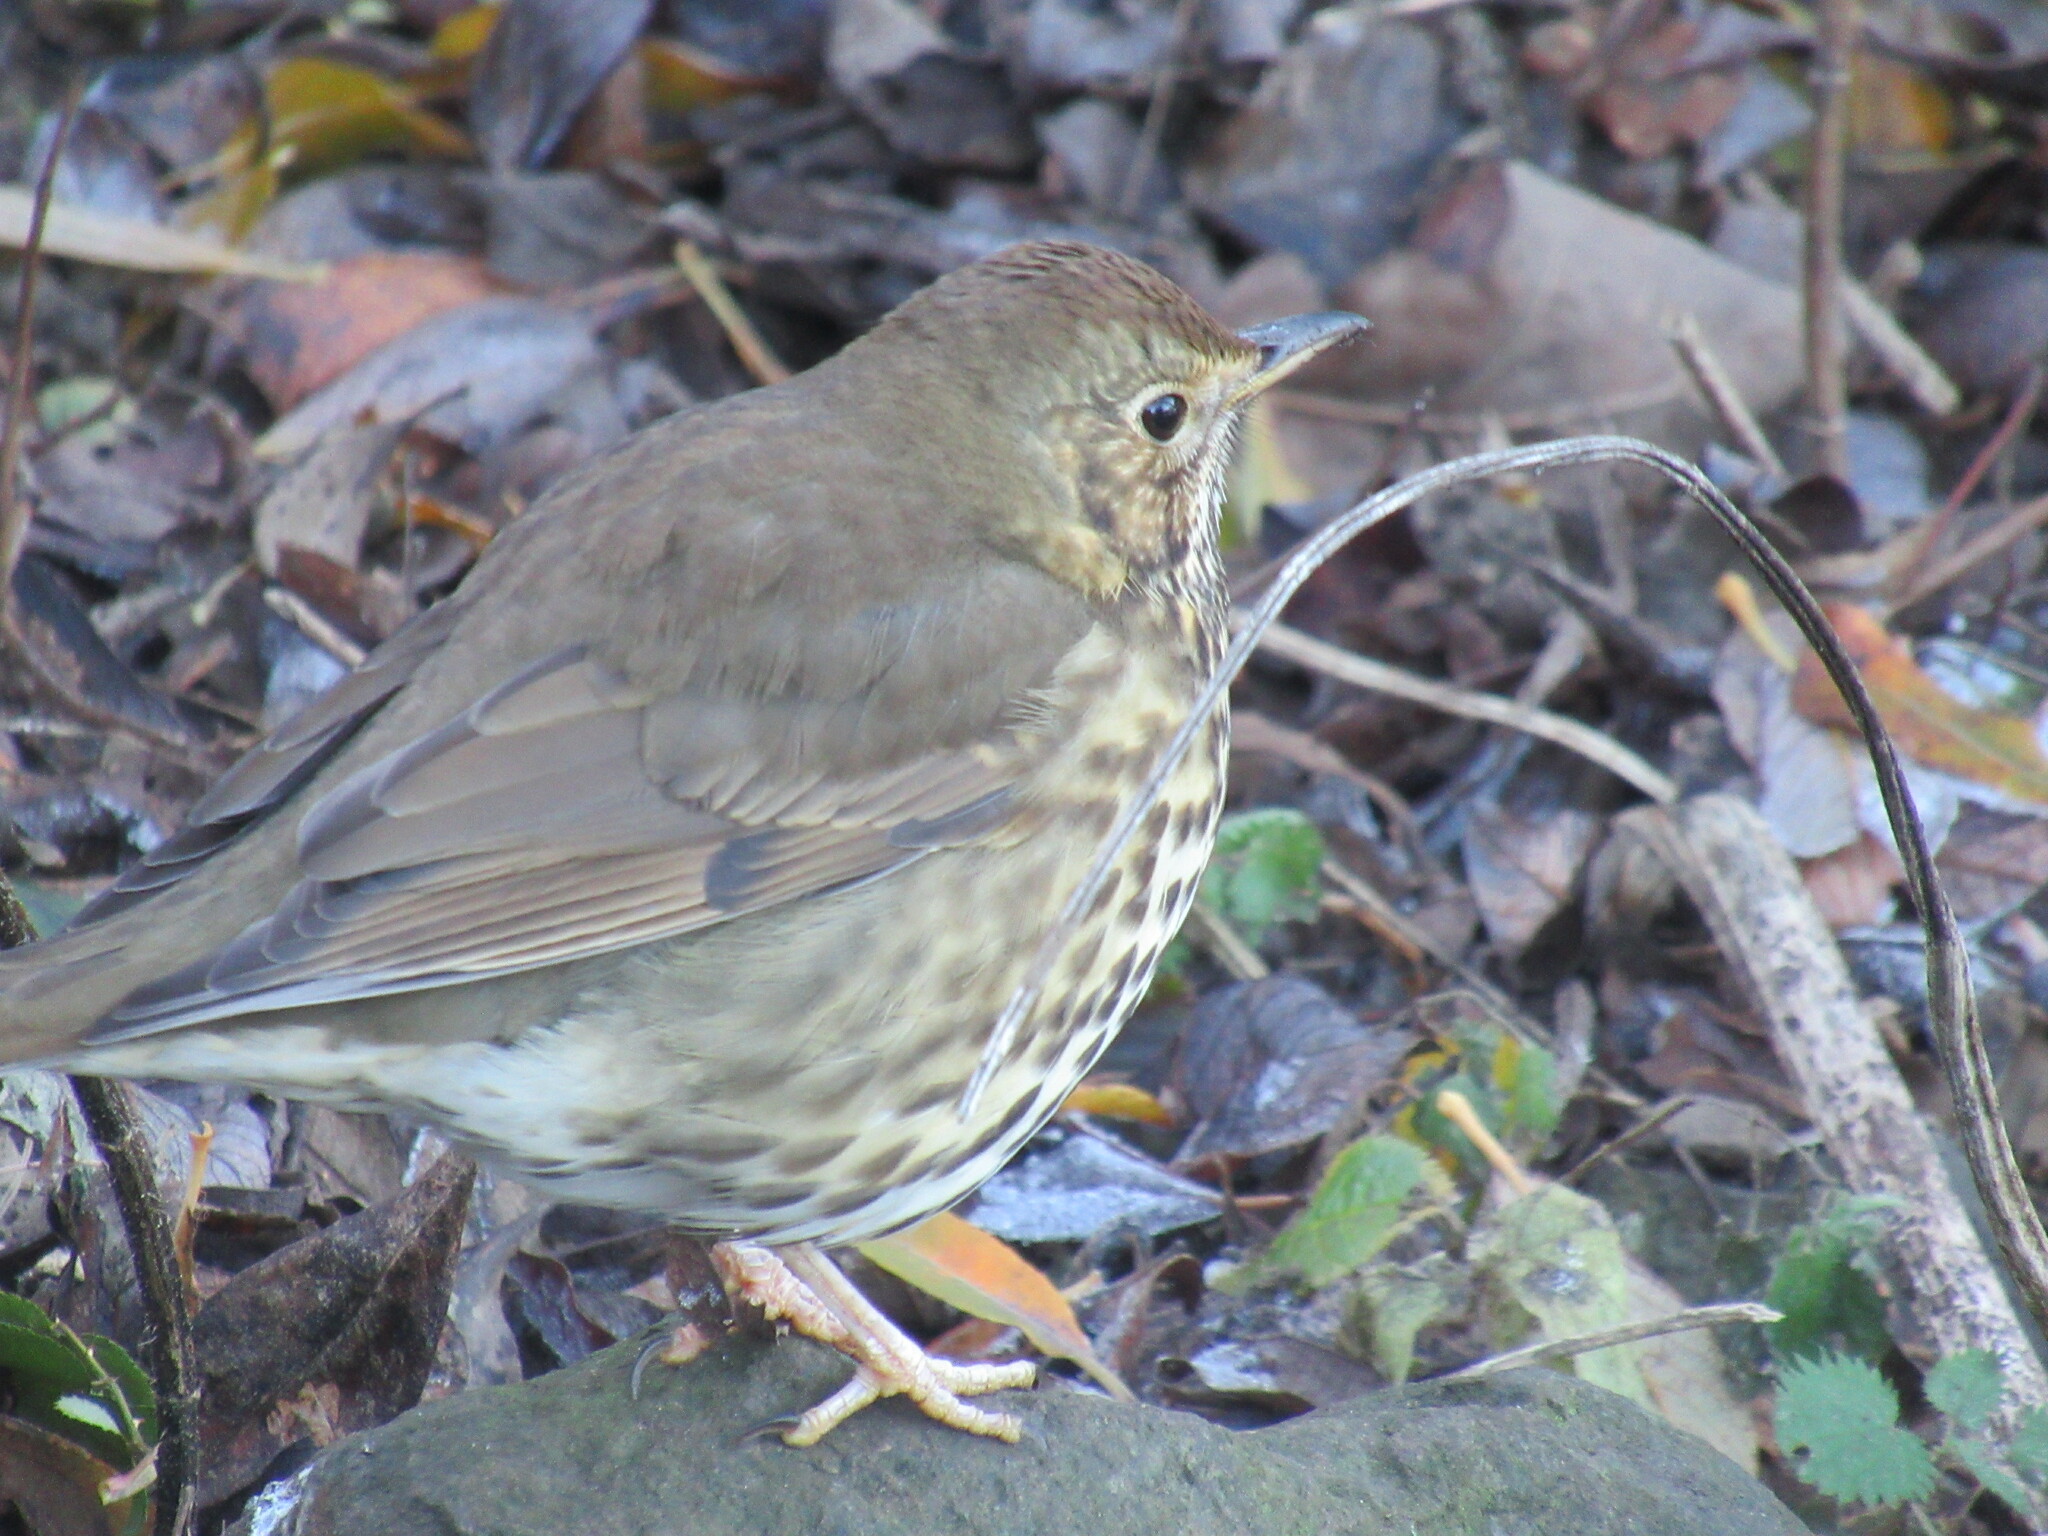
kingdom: Animalia
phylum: Chordata
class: Aves
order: Passeriformes
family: Turdidae
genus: Turdus
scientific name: Turdus philomelos
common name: Song thrush
